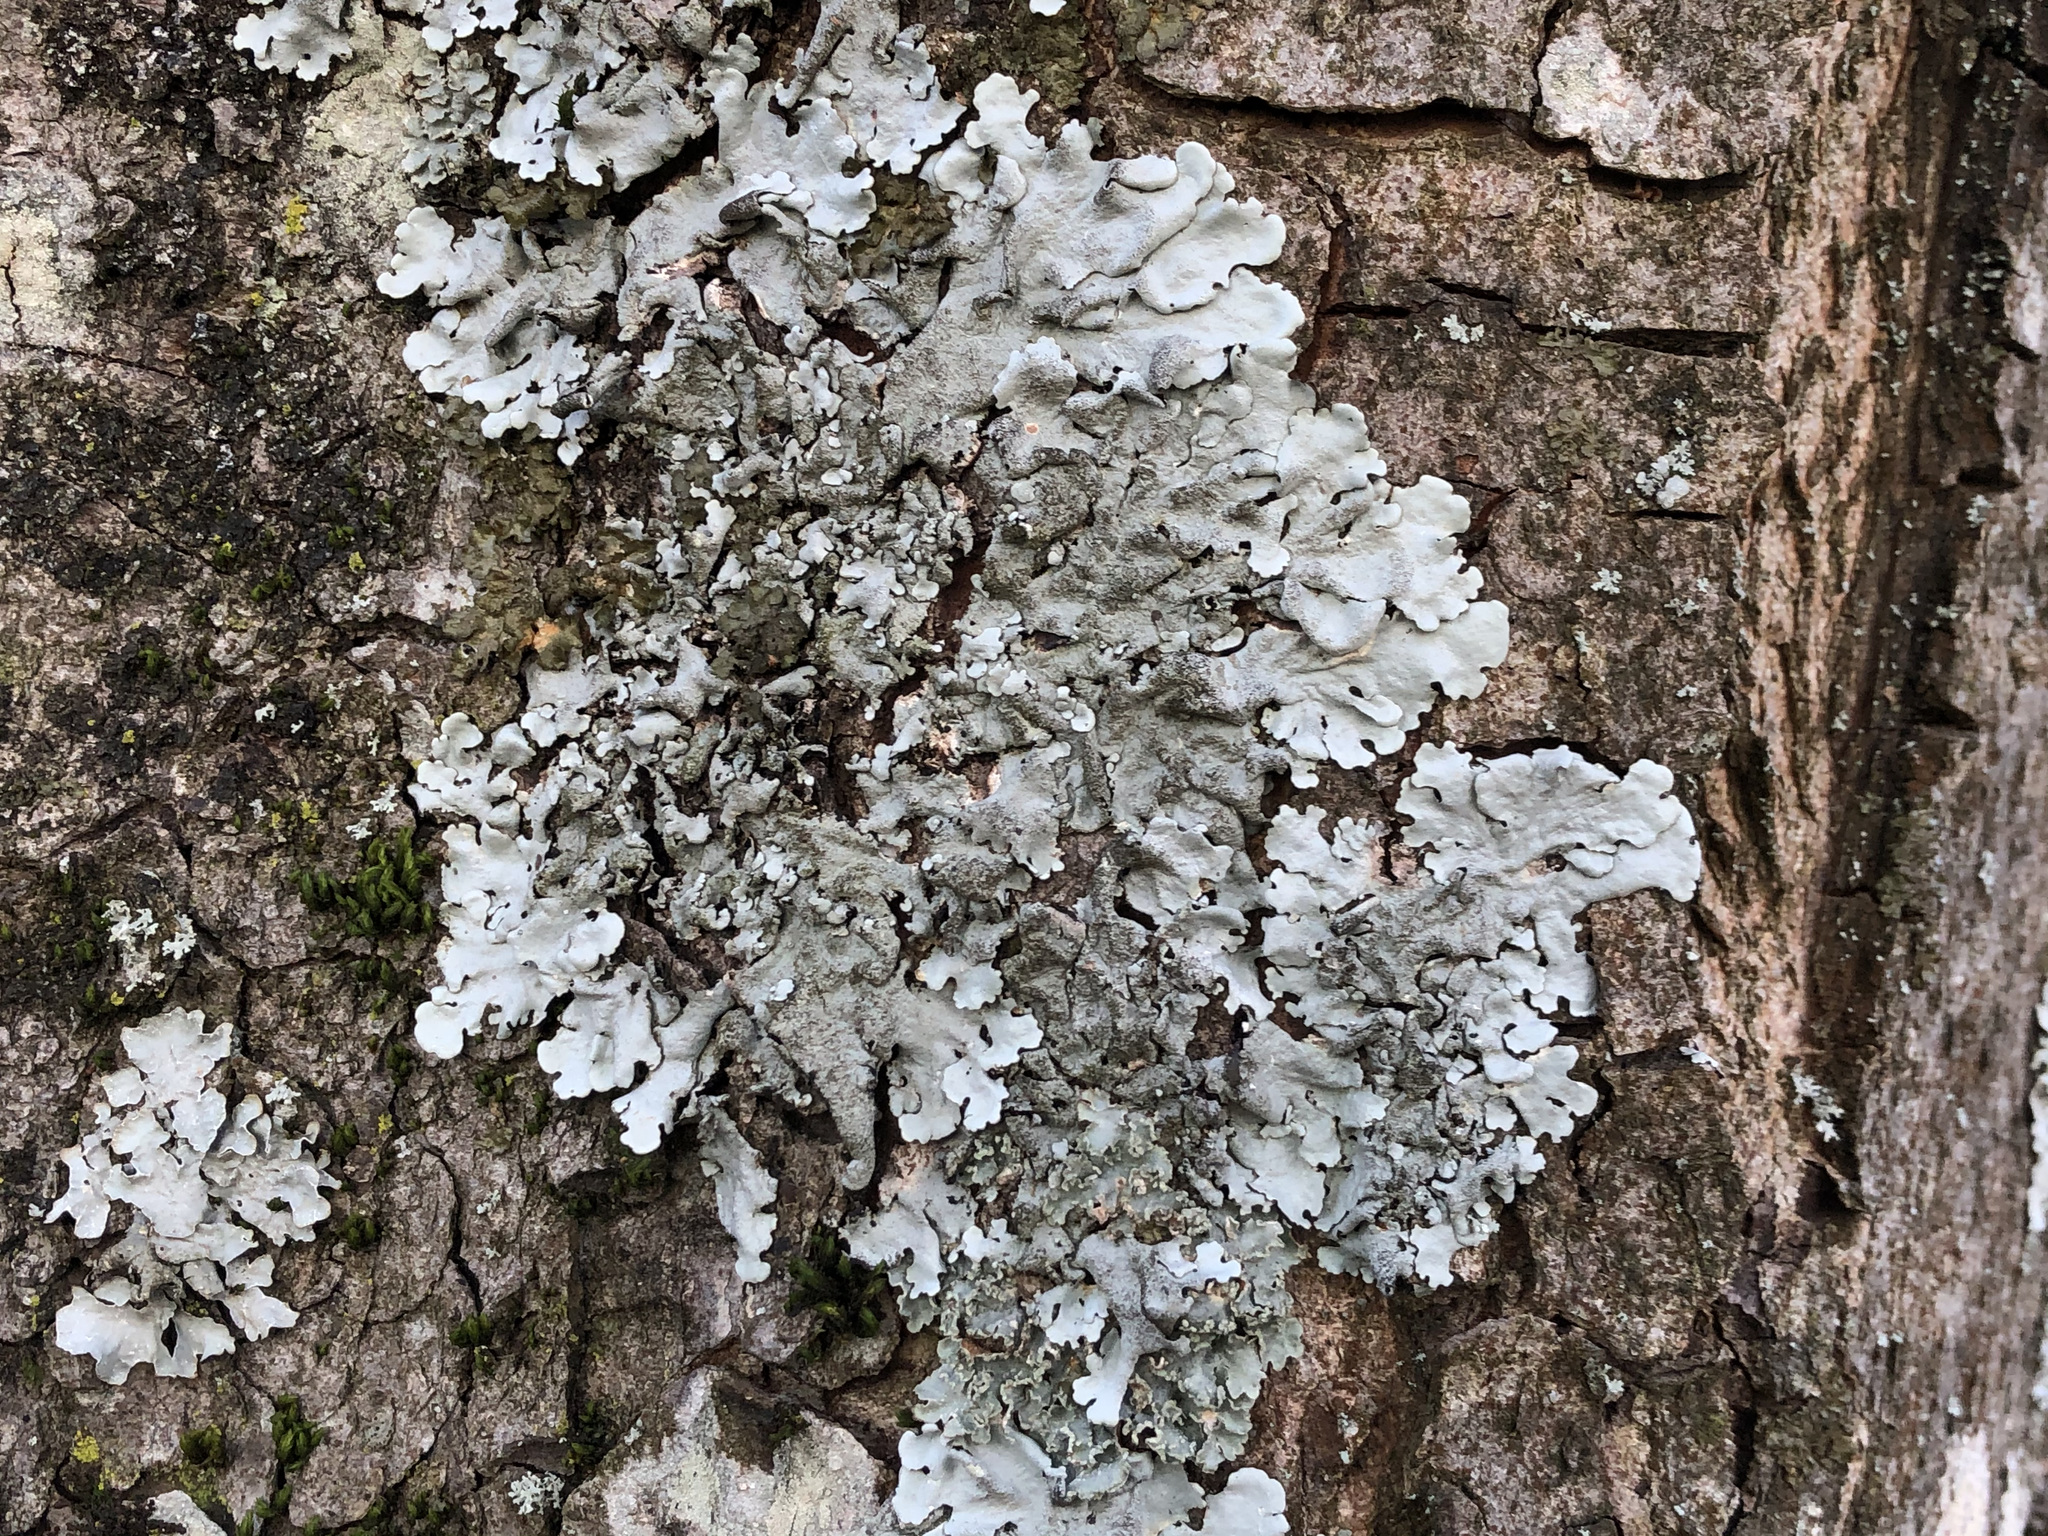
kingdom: Fungi
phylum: Ascomycota
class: Lecanoromycetes
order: Lecanorales
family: Parmeliaceae
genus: Parmelina
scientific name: Parmelina tiliacea
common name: Linden shield lichen
